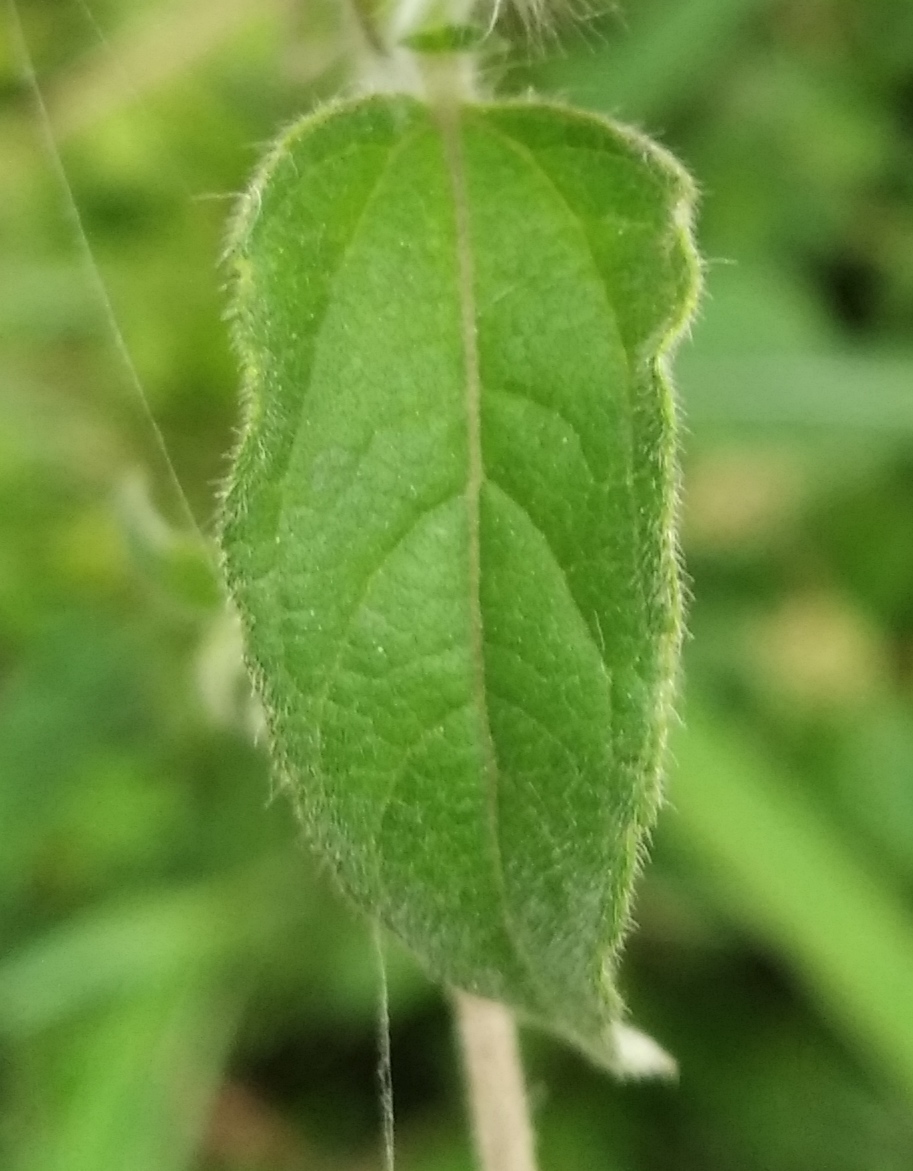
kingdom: Plantae
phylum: Tracheophyta
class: Magnoliopsida
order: Asterales
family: Asteraceae
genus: Lagascea
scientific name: Lagascea mollis
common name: Silkleaf
